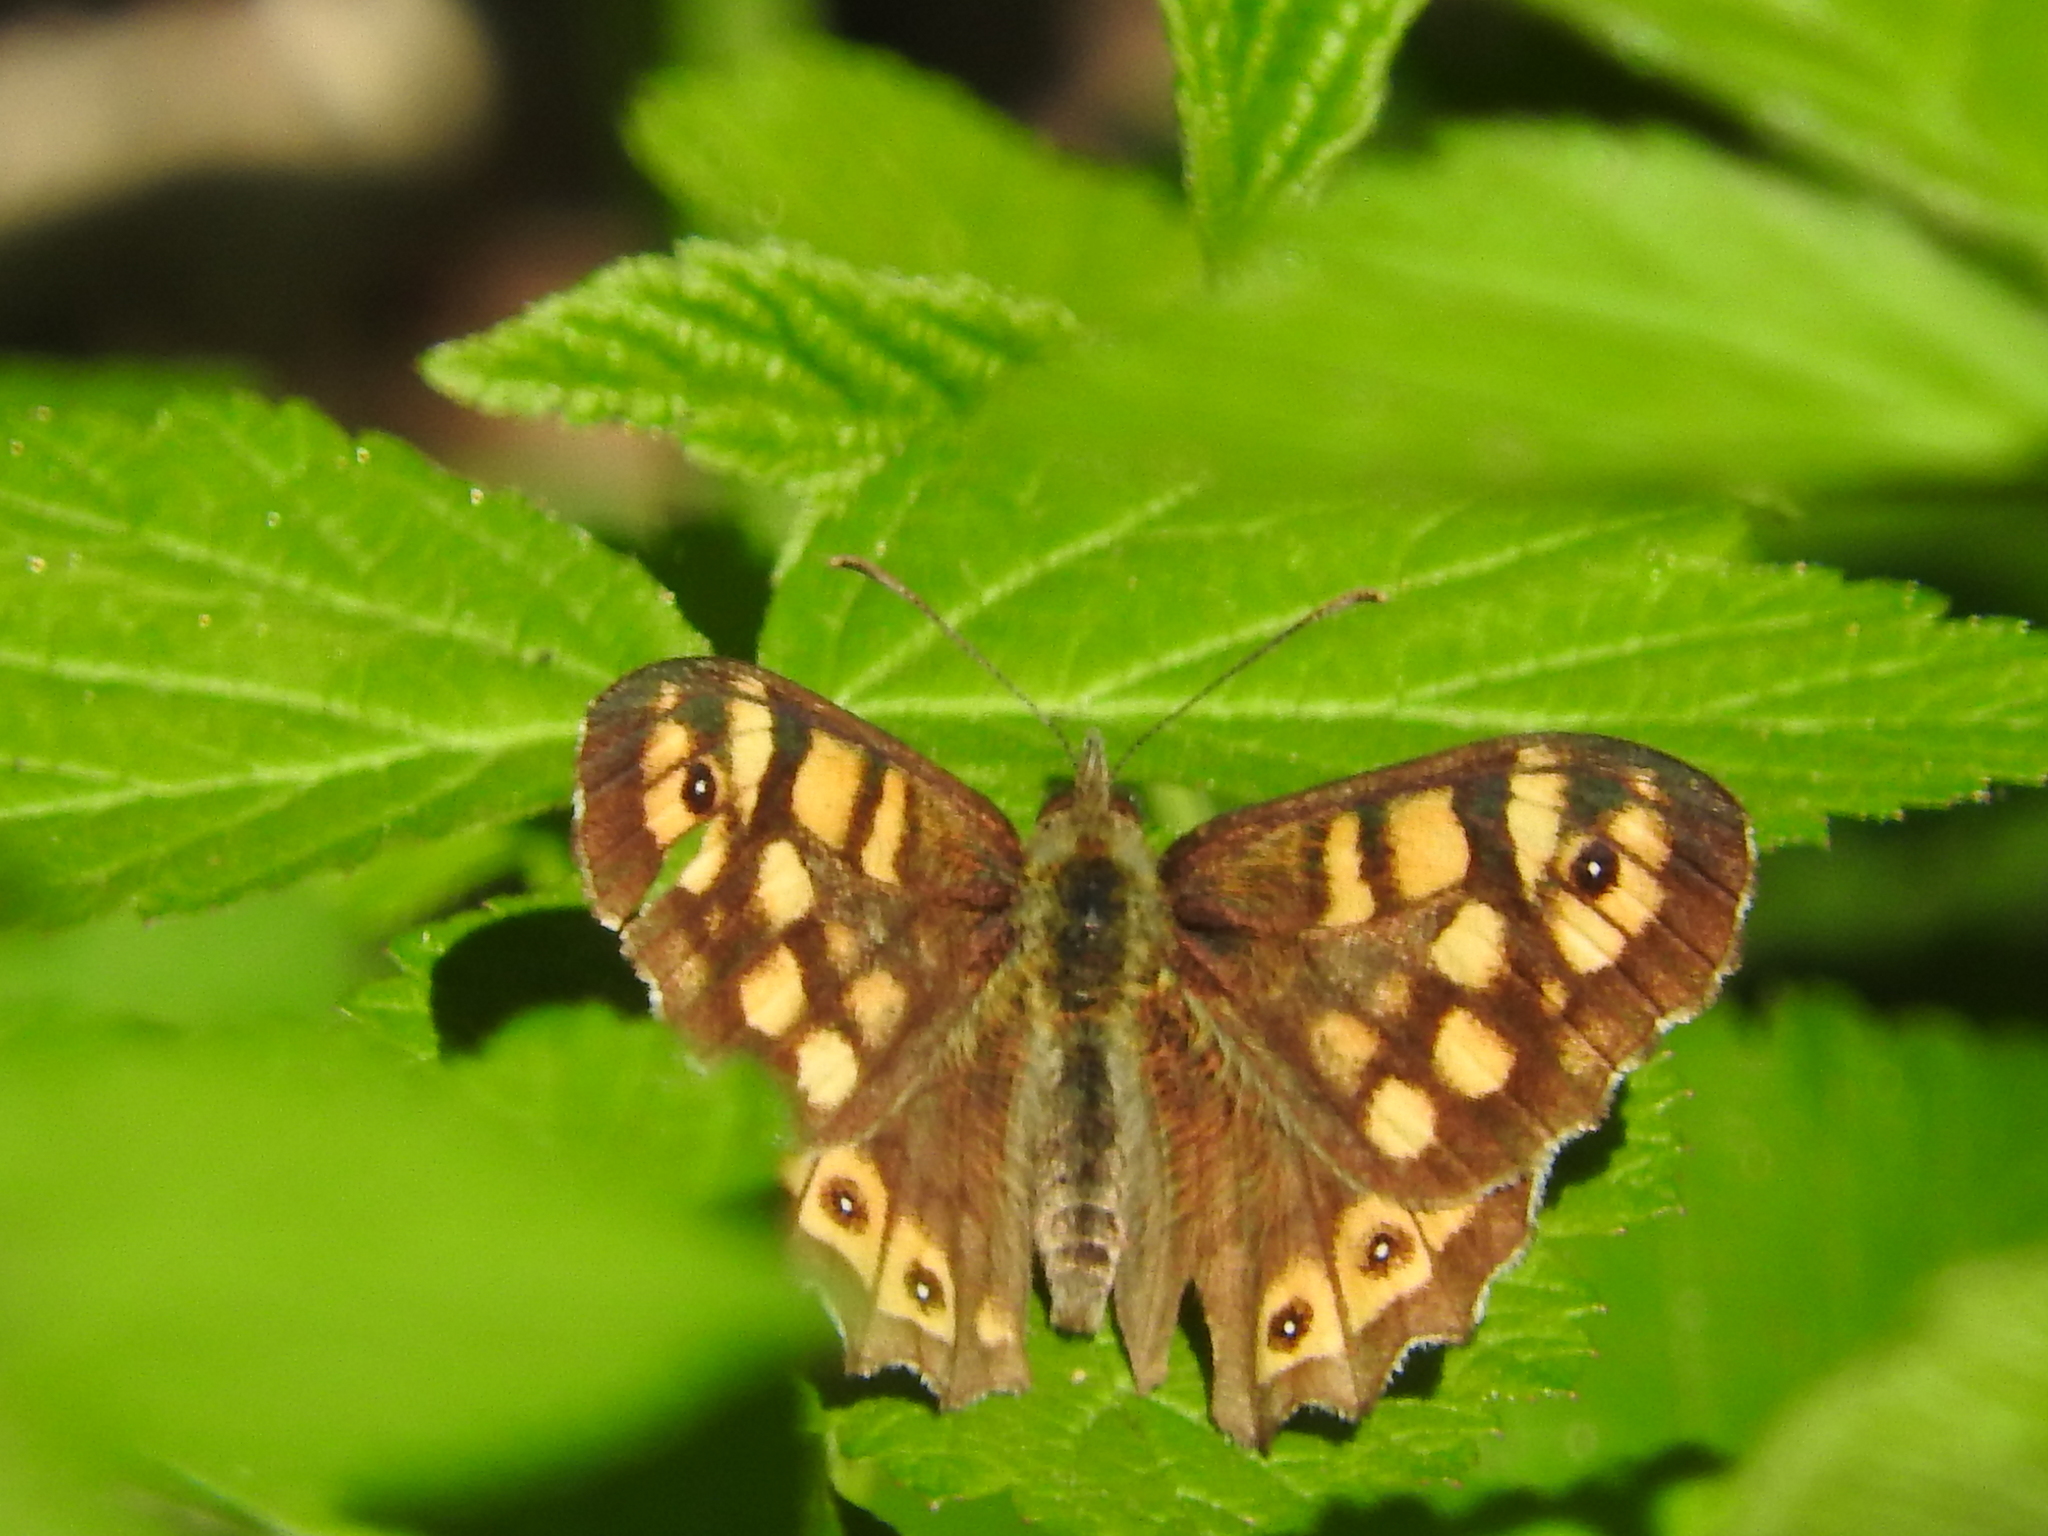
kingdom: Animalia
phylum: Arthropoda
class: Insecta
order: Lepidoptera
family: Nymphalidae
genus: Pararge
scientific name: Pararge aegeria
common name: Speckled wood
